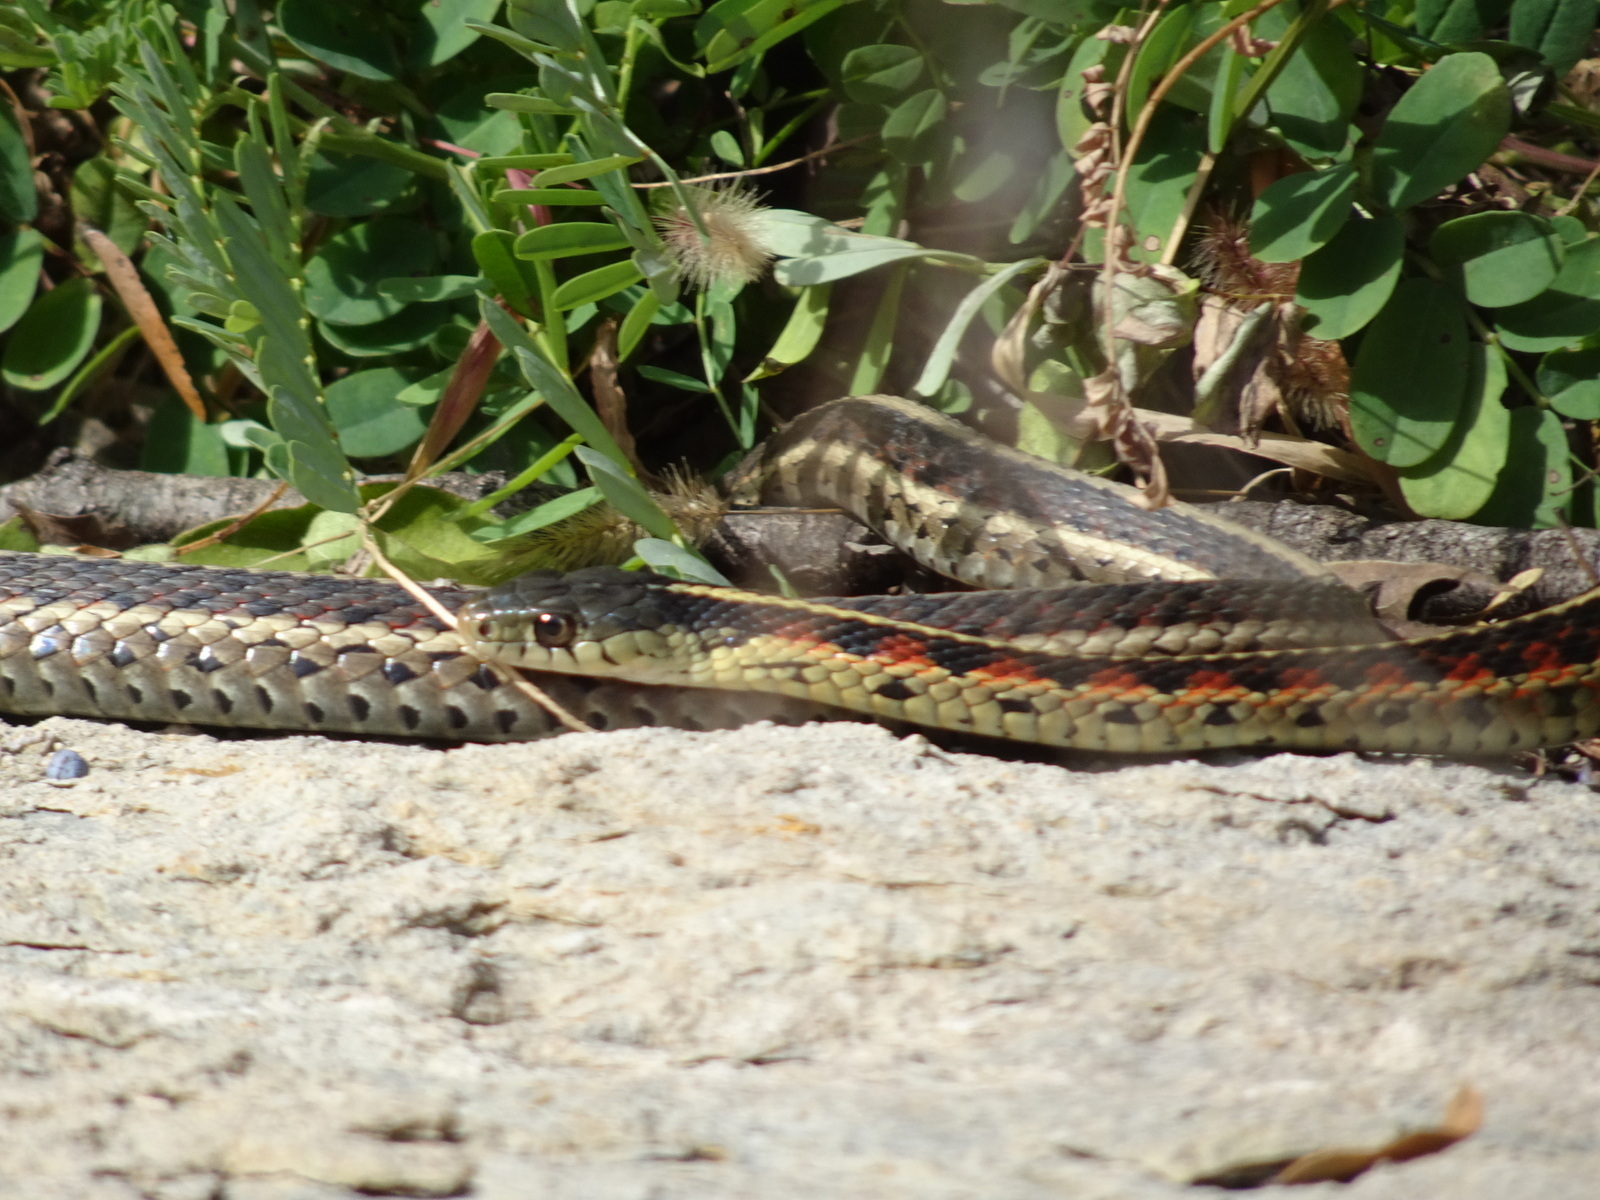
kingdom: Animalia
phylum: Chordata
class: Squamata
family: Colubridae
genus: Thamnophis
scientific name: Thamnophis sirtalis
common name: Common garter snake
